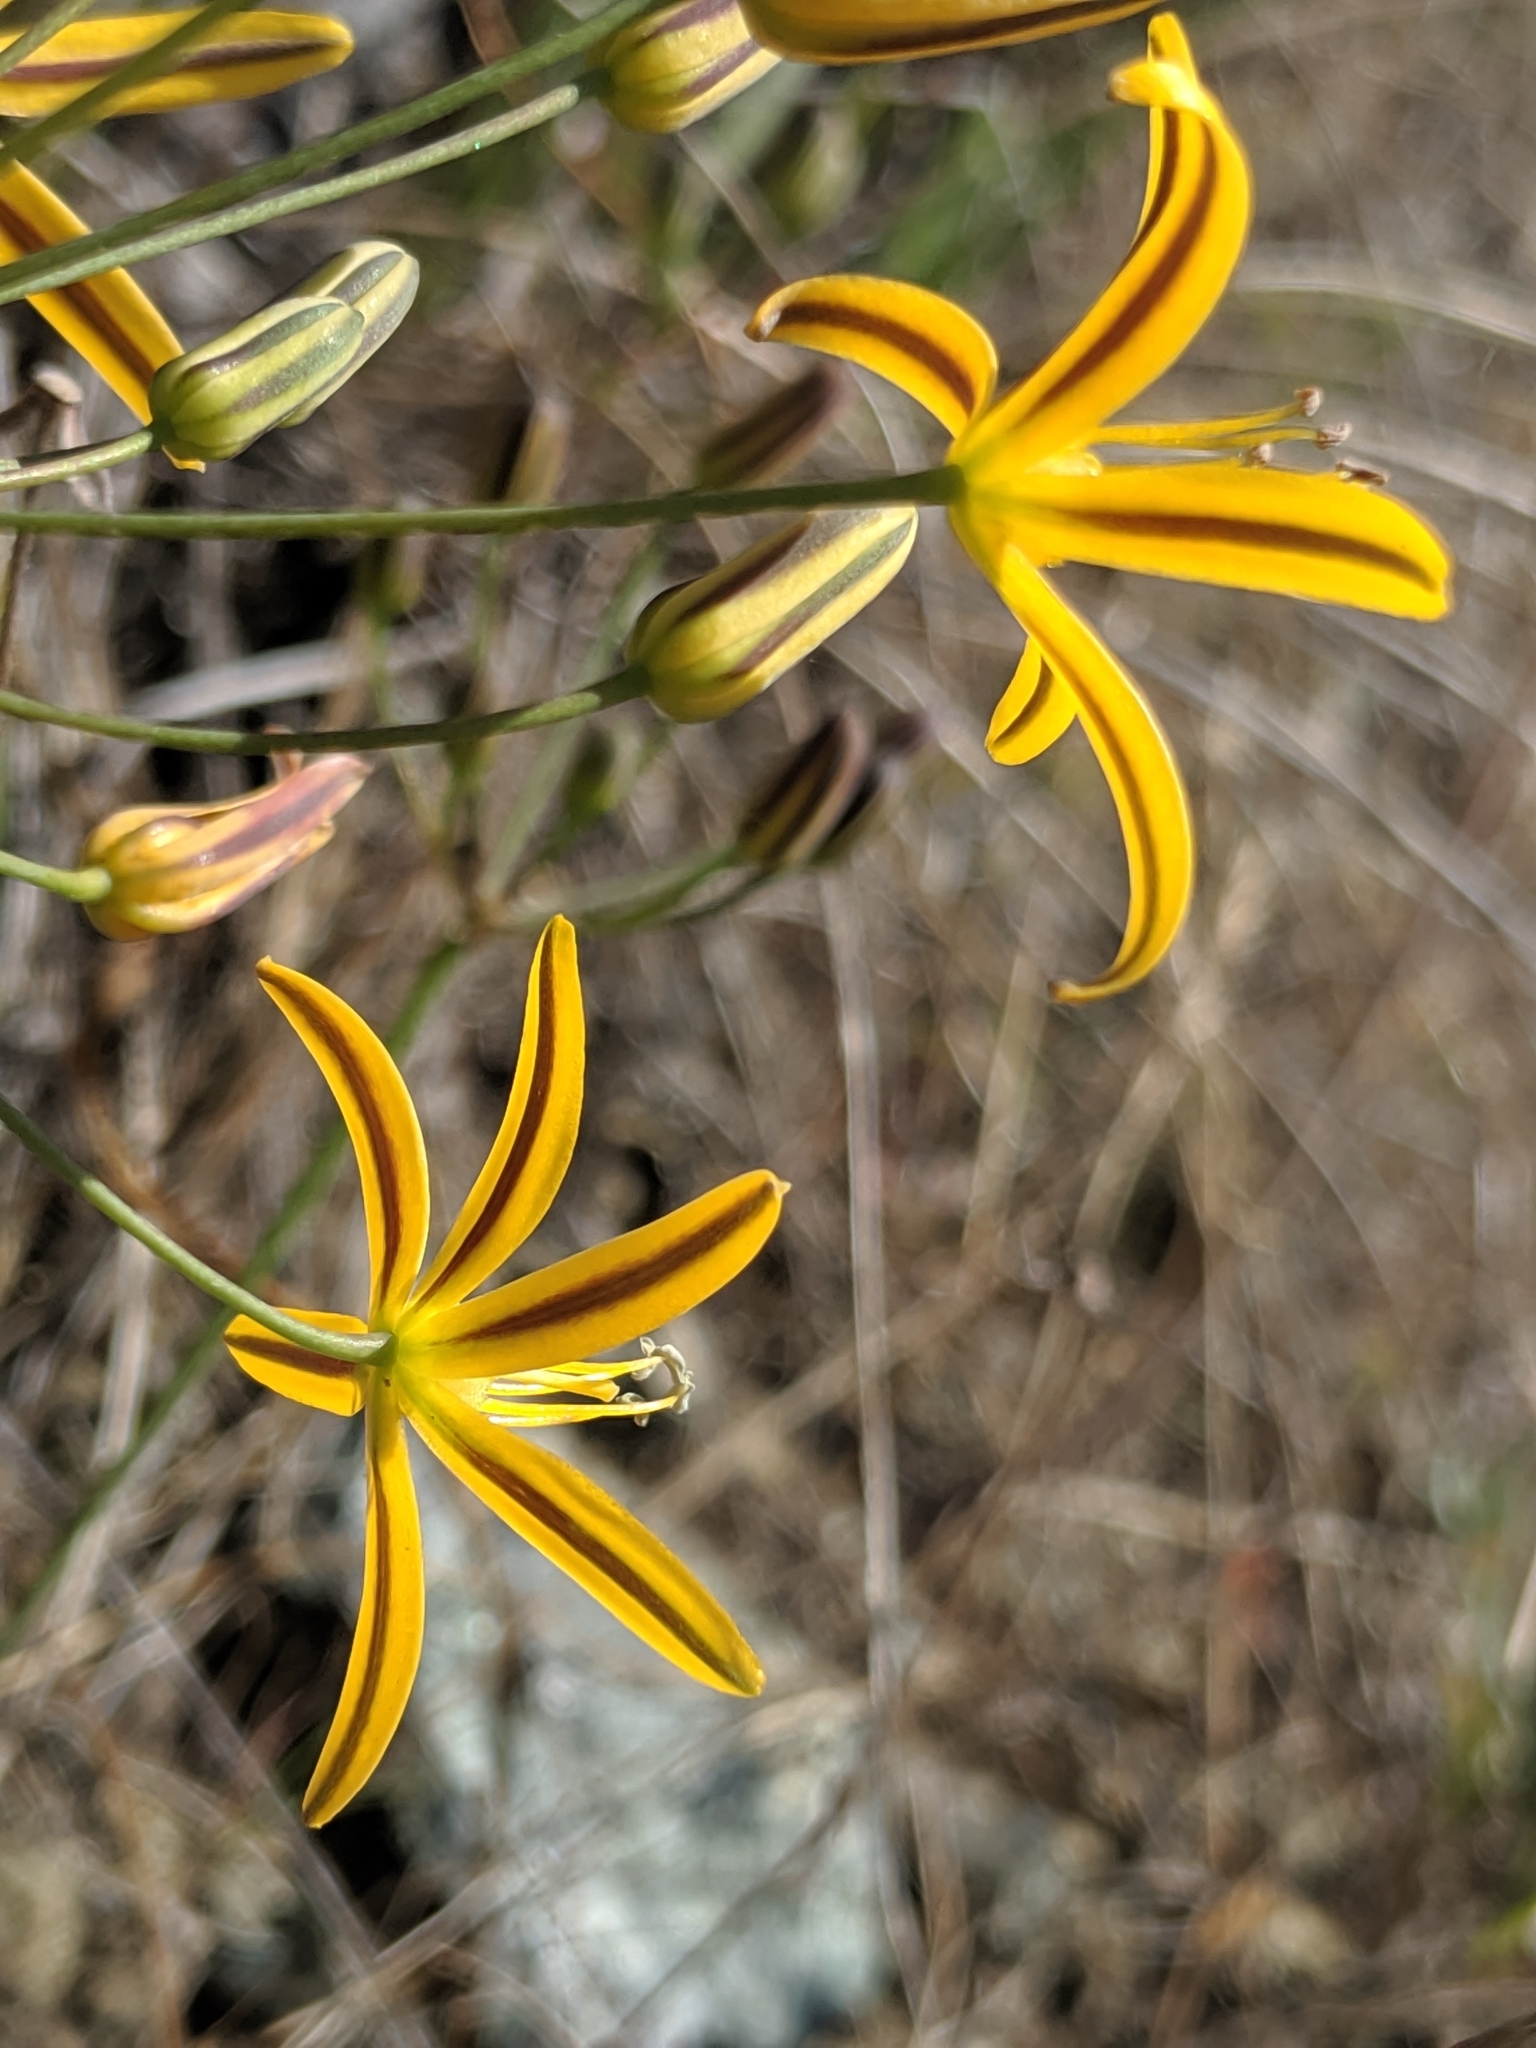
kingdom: Plantae
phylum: Tracheophyta
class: Liliopsida
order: Asparagales
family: Asparagaceae
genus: Bloomeria
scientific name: Bloomeria crocea
